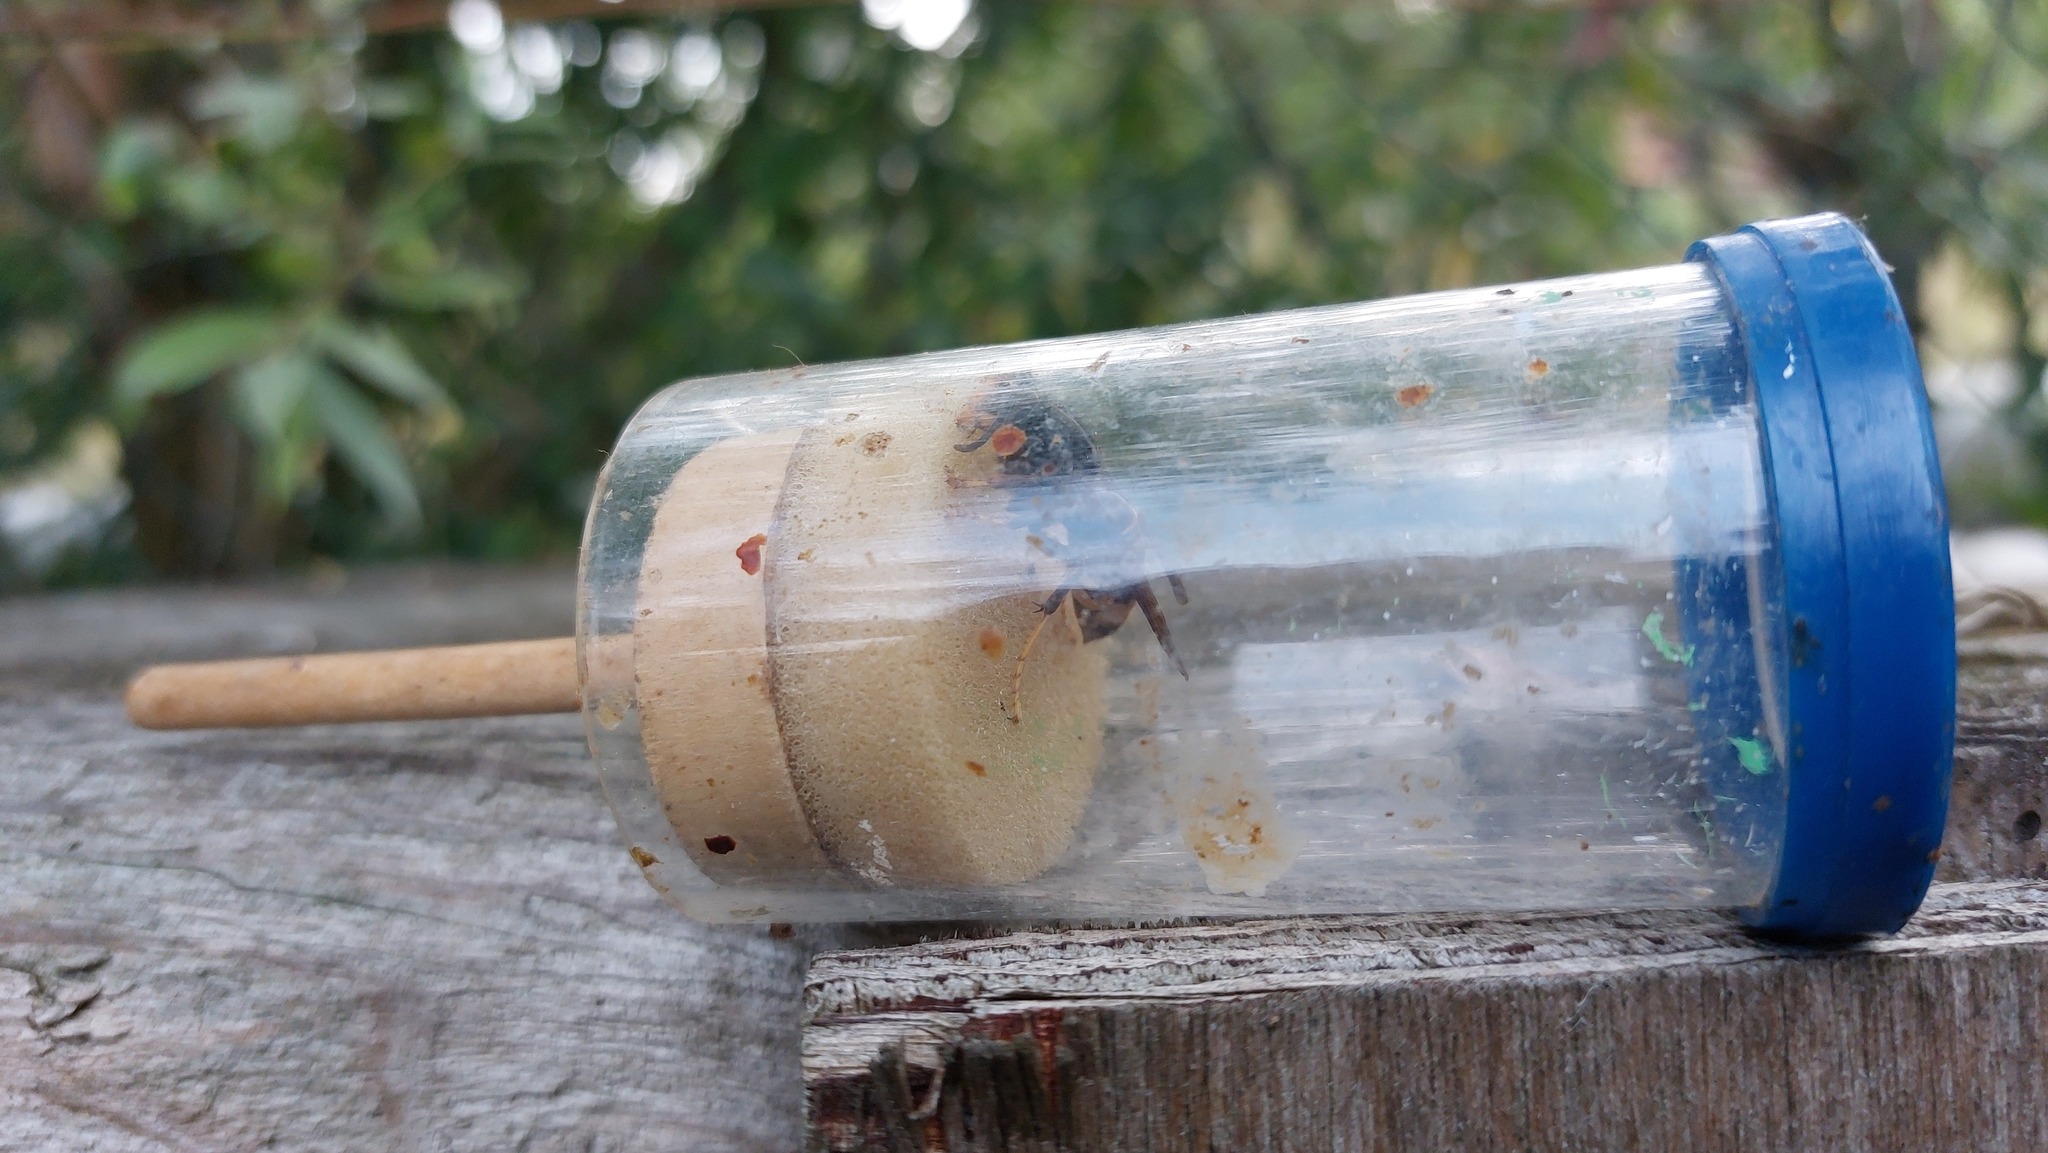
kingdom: Animalia
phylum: Arthropoda
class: Insecta
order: Hymenoptera
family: Vespidae
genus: Vespa
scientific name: Vespa velutina
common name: Asian hornet
